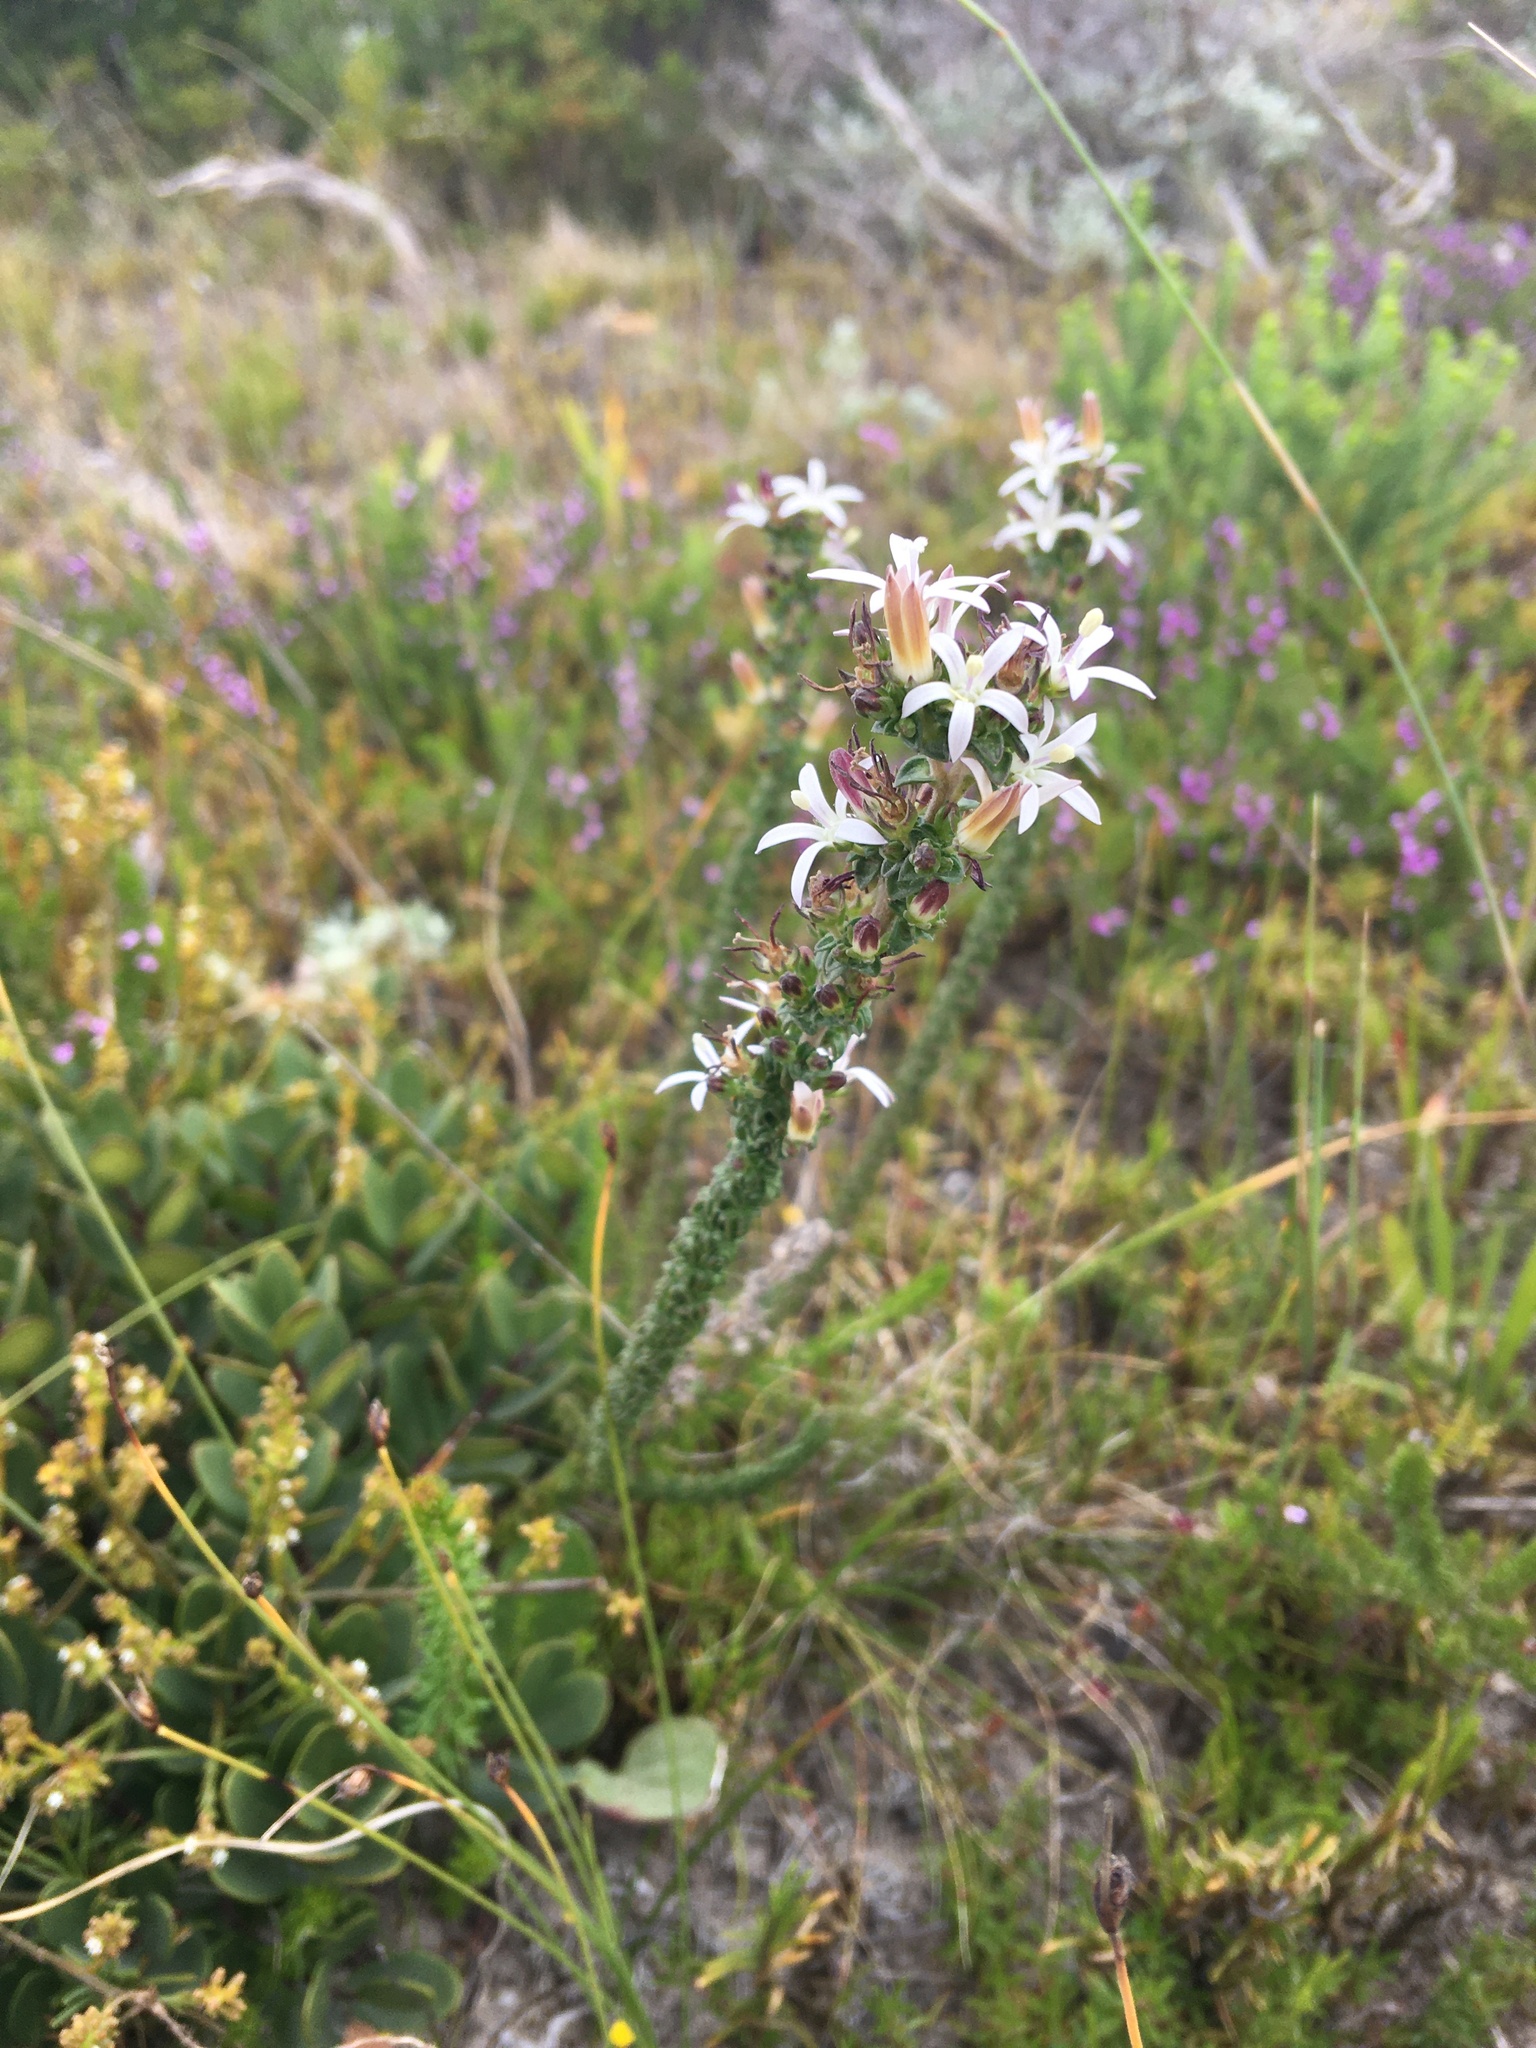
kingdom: Plantae
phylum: Tracheophyta
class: Magnoliopsida
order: Asterales
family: Campanulaceae
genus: Wahlenbergia
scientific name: Wahlenbergia tenella
